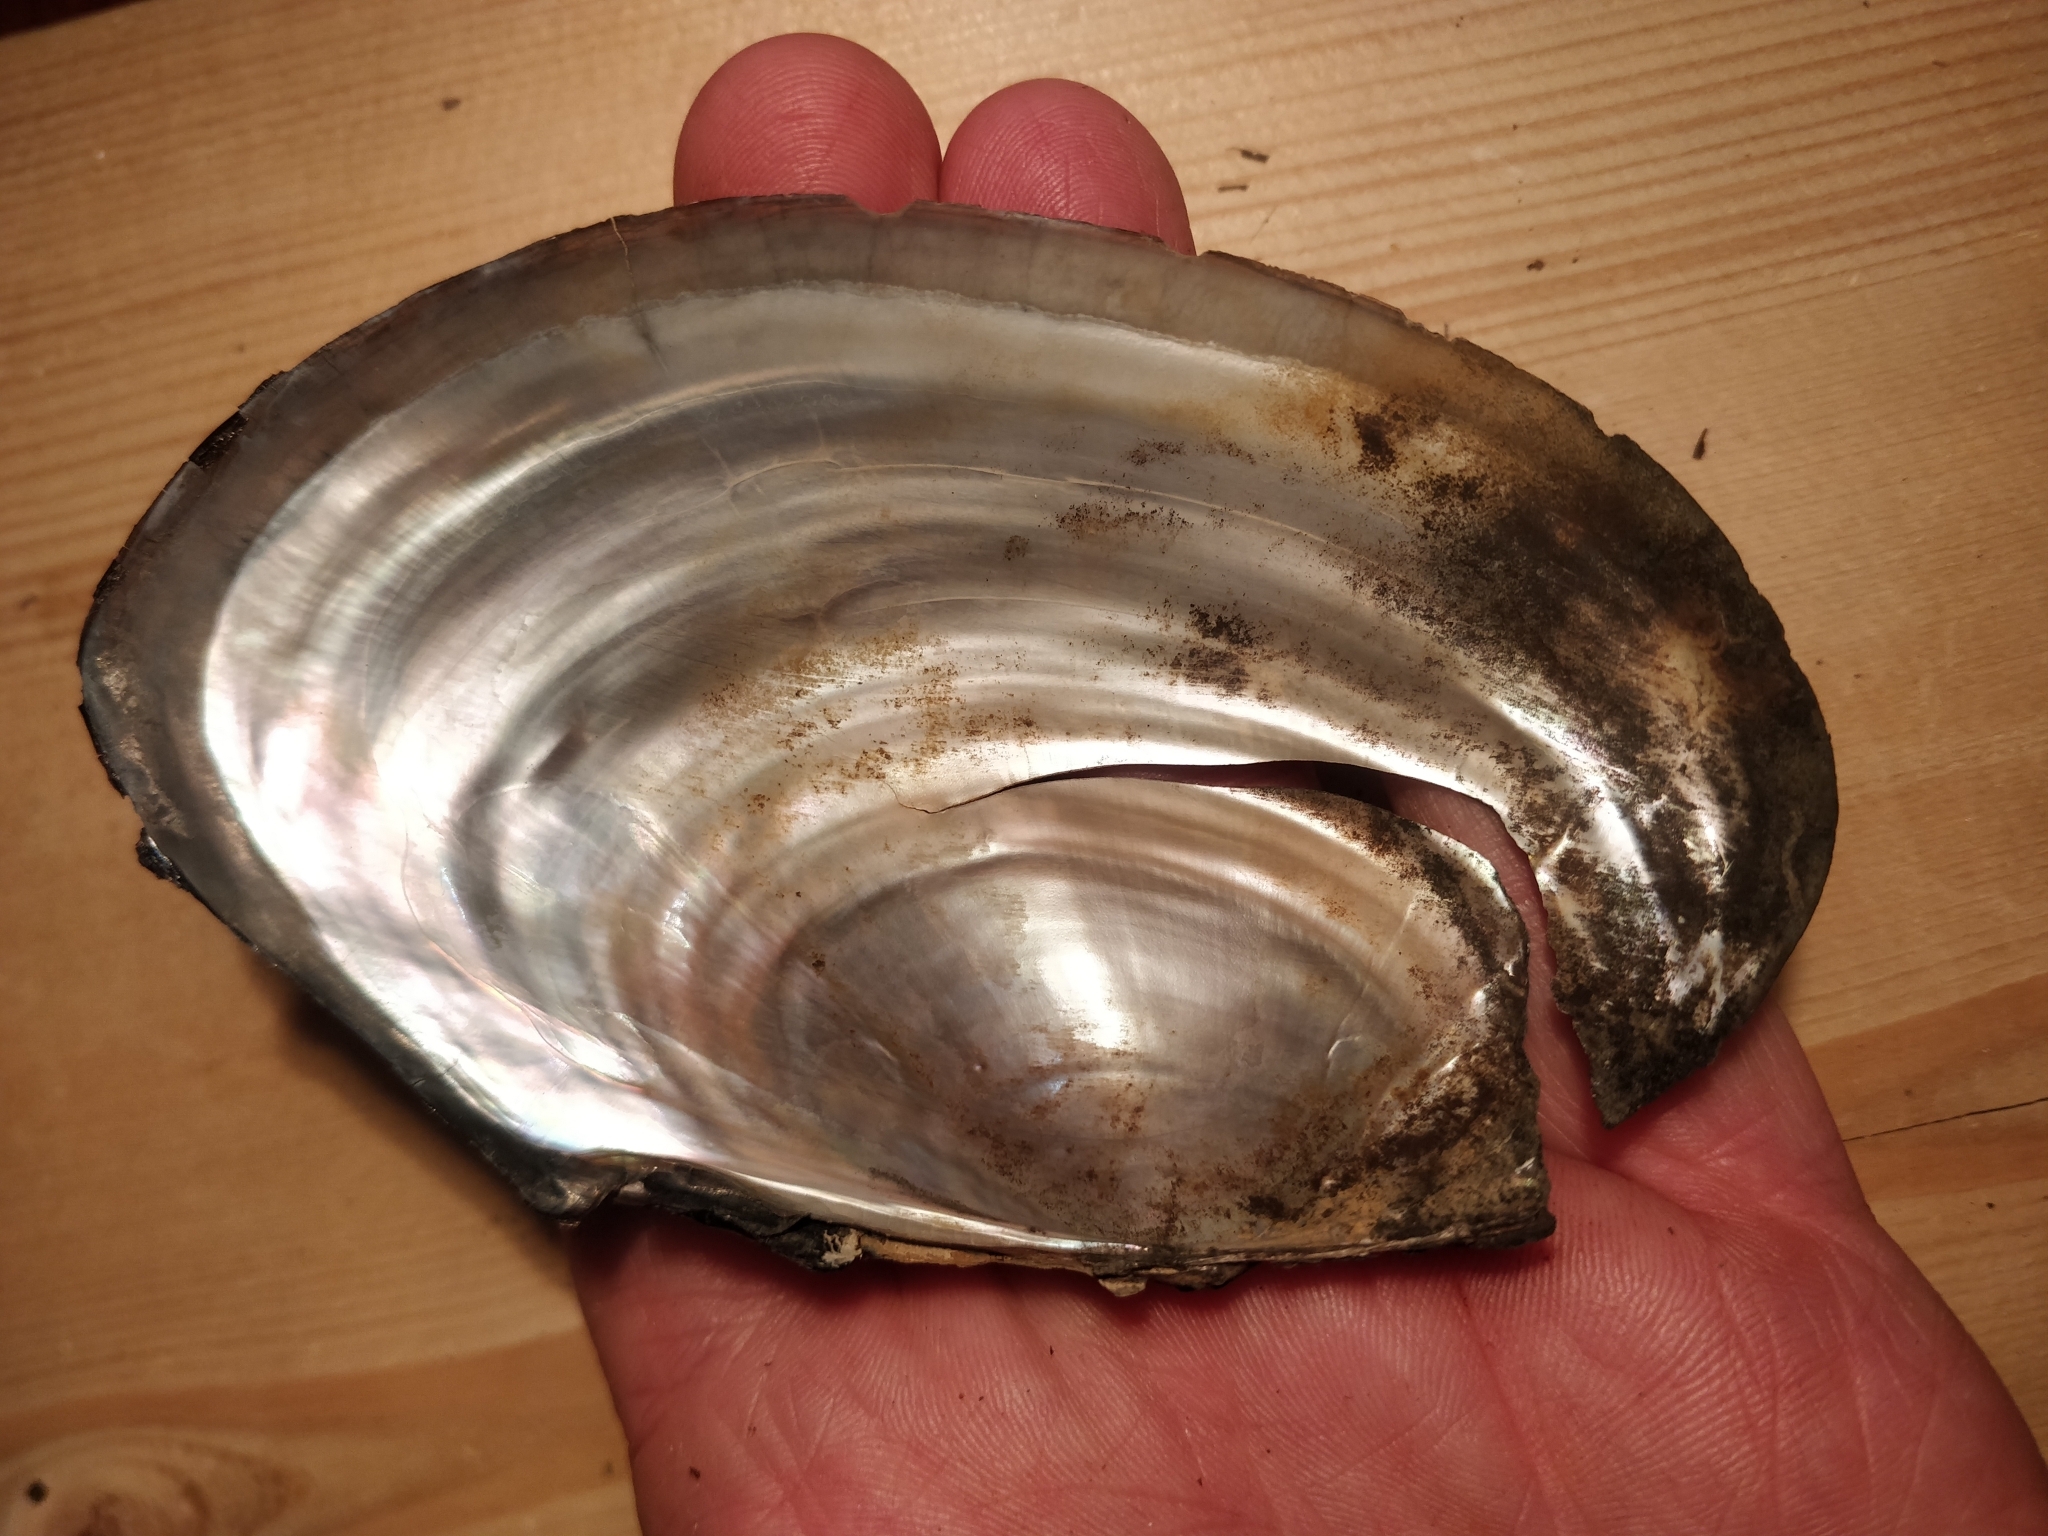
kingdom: Animalia
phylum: Mollusca
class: Bivalvia
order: Unionida
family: Unionidae
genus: Pyganodon
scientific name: Pyganodon grandis
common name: Giant floater
